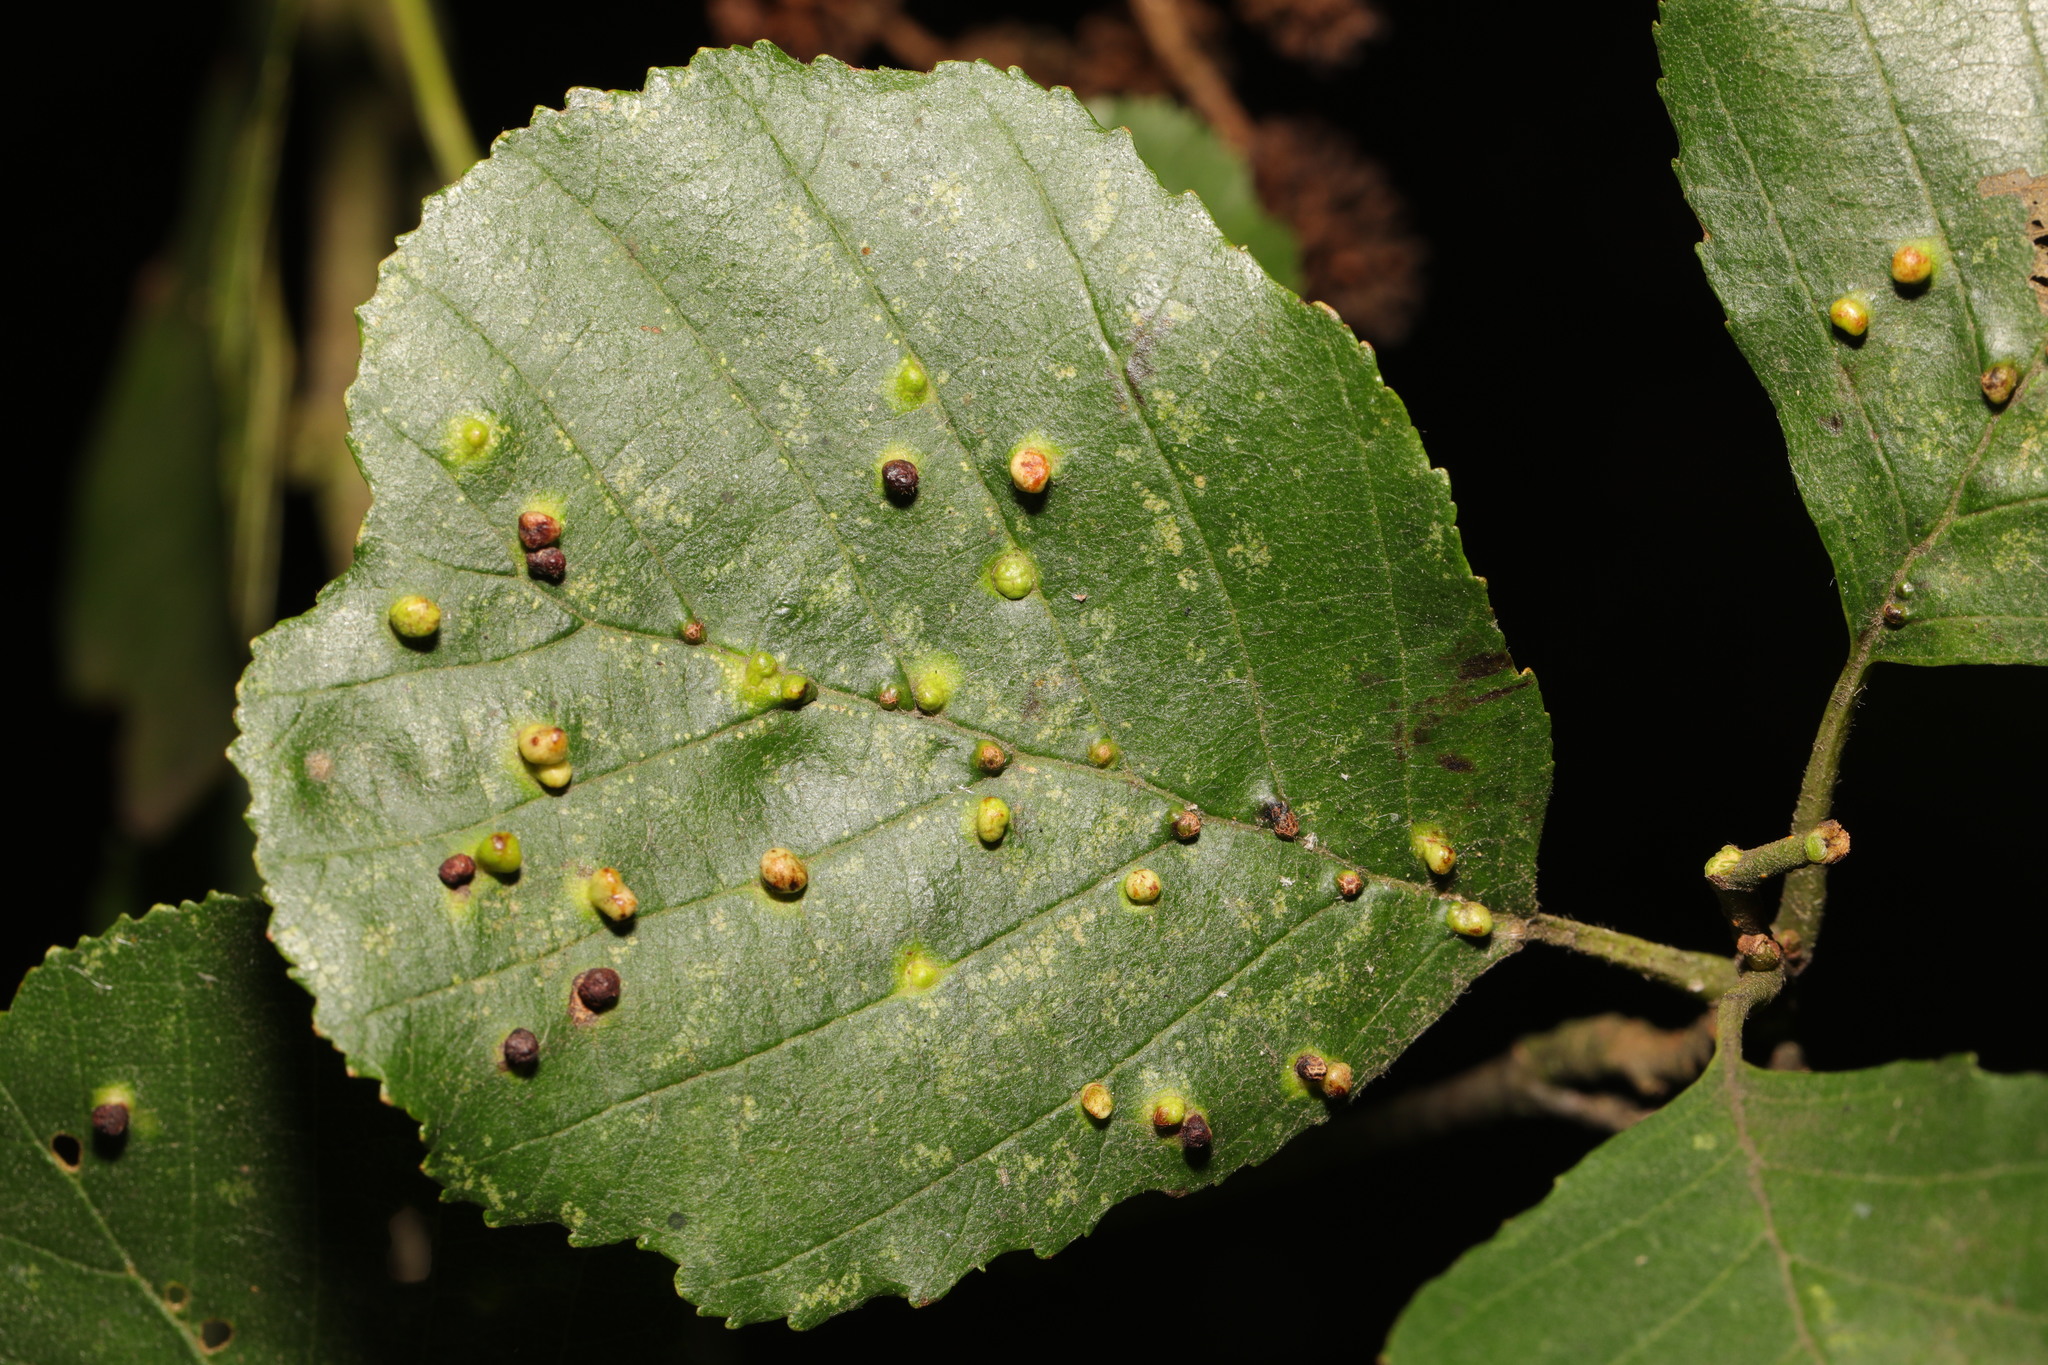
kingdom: Animalia
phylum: Arthropoda
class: Arachnida
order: Trombidiformes
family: Eriophyidae
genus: Eriophyes
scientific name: Eriophyes laevis
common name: Alder leaf gall mite
